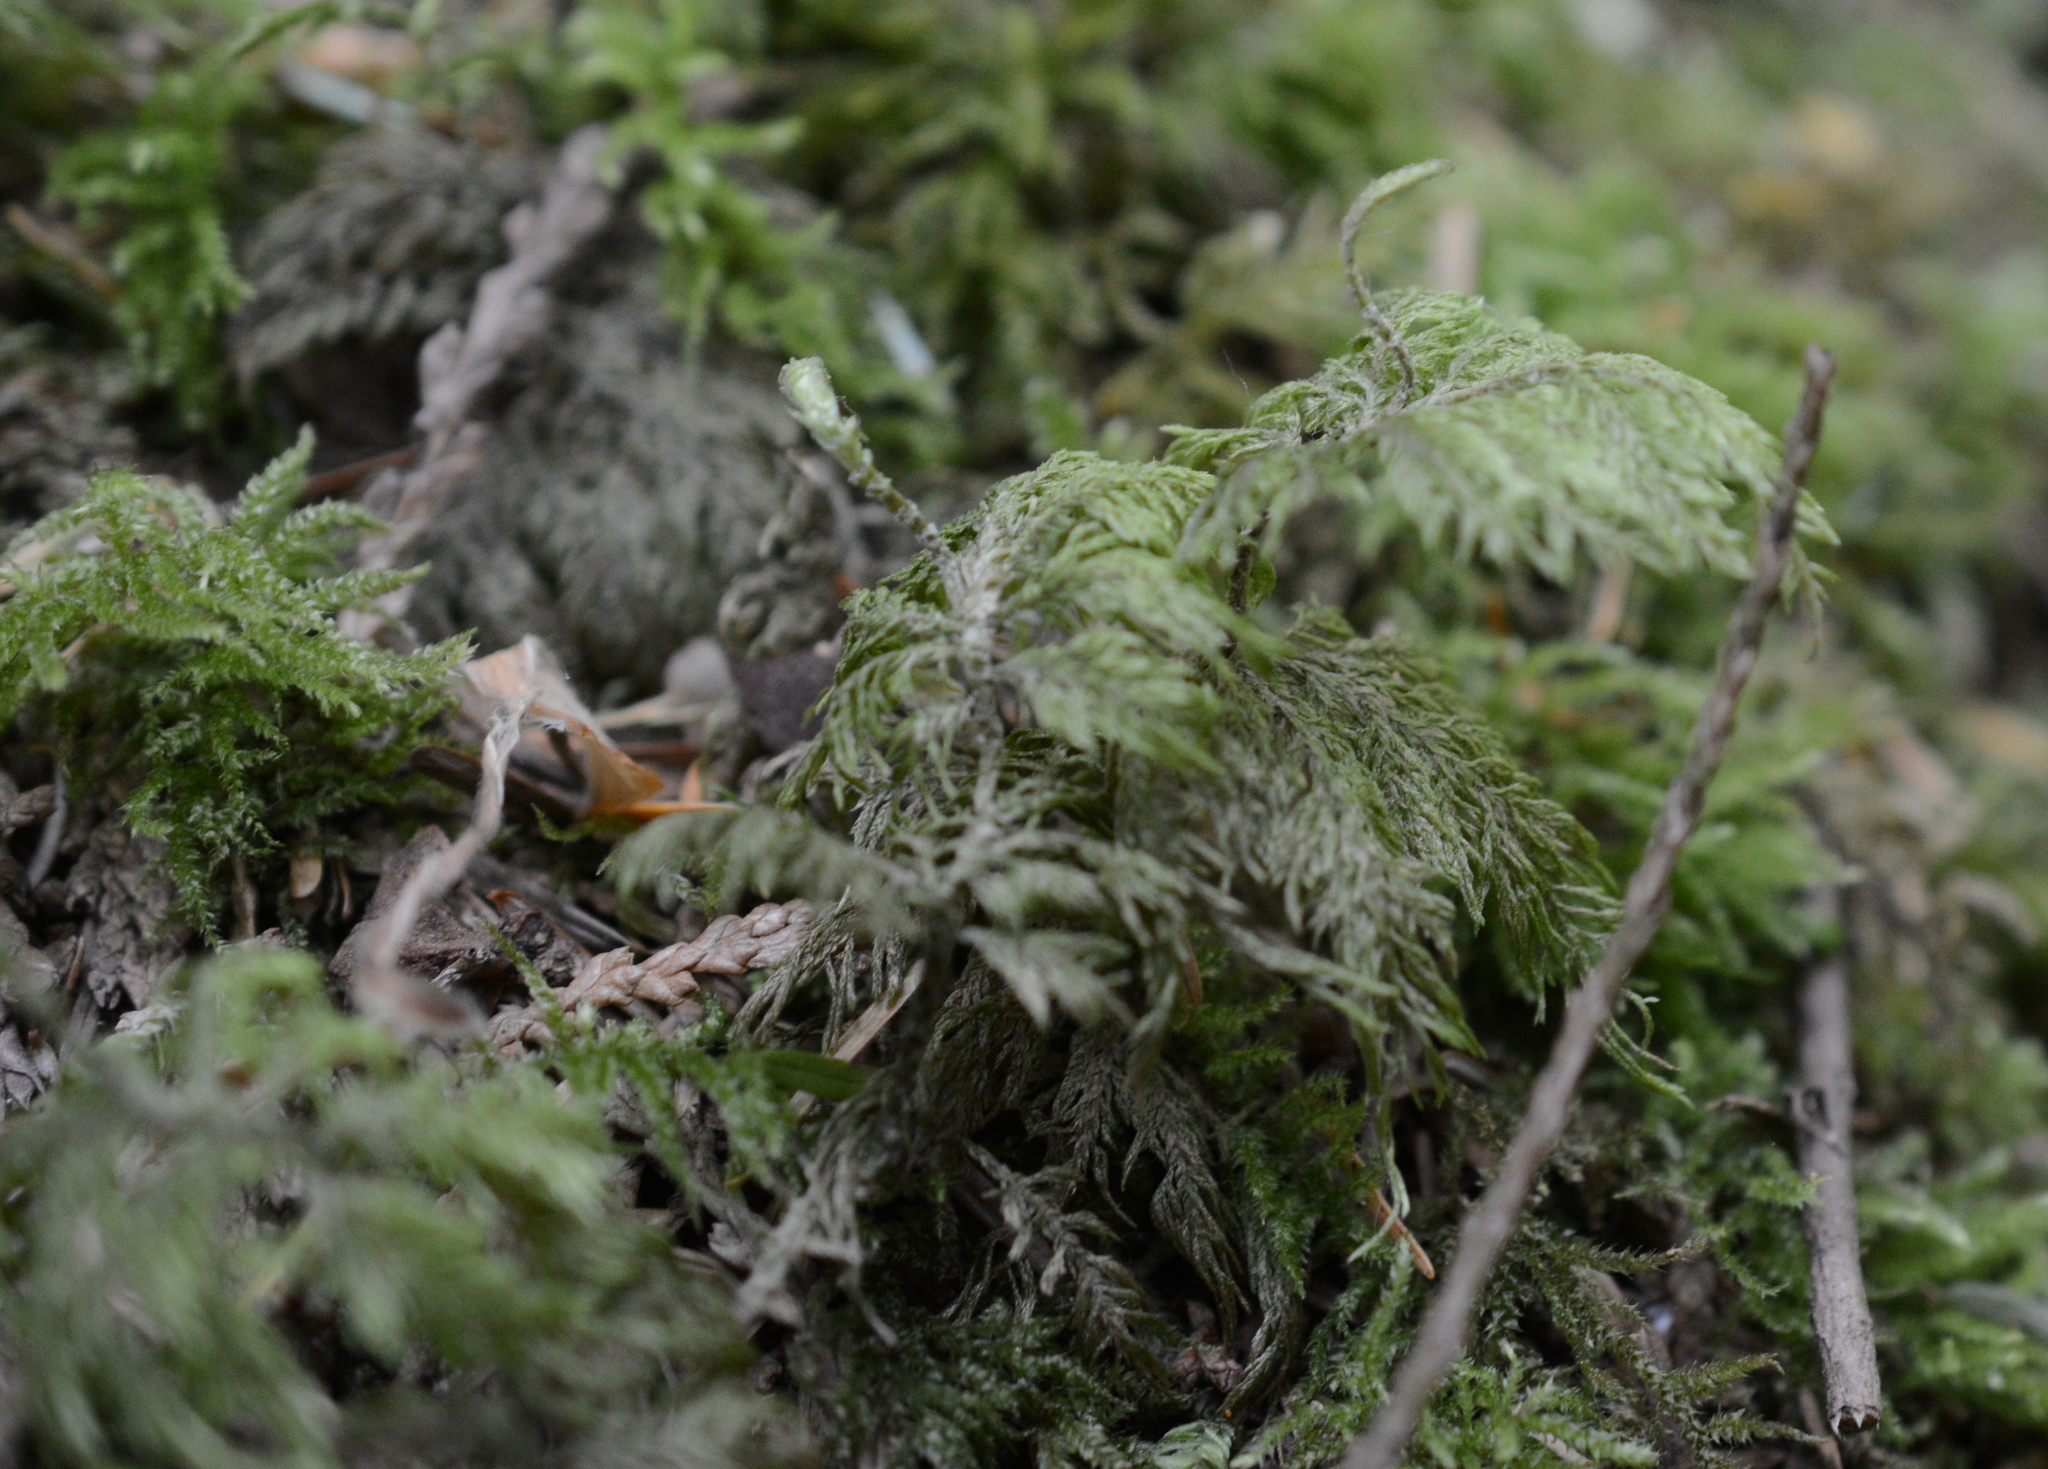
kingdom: Plantae
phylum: Bryophyta
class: Bryopsida
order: Hypnales
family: Hylocomiaceae
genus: Hylocomium
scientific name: Hylocomium splendens
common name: Stairstep moss
